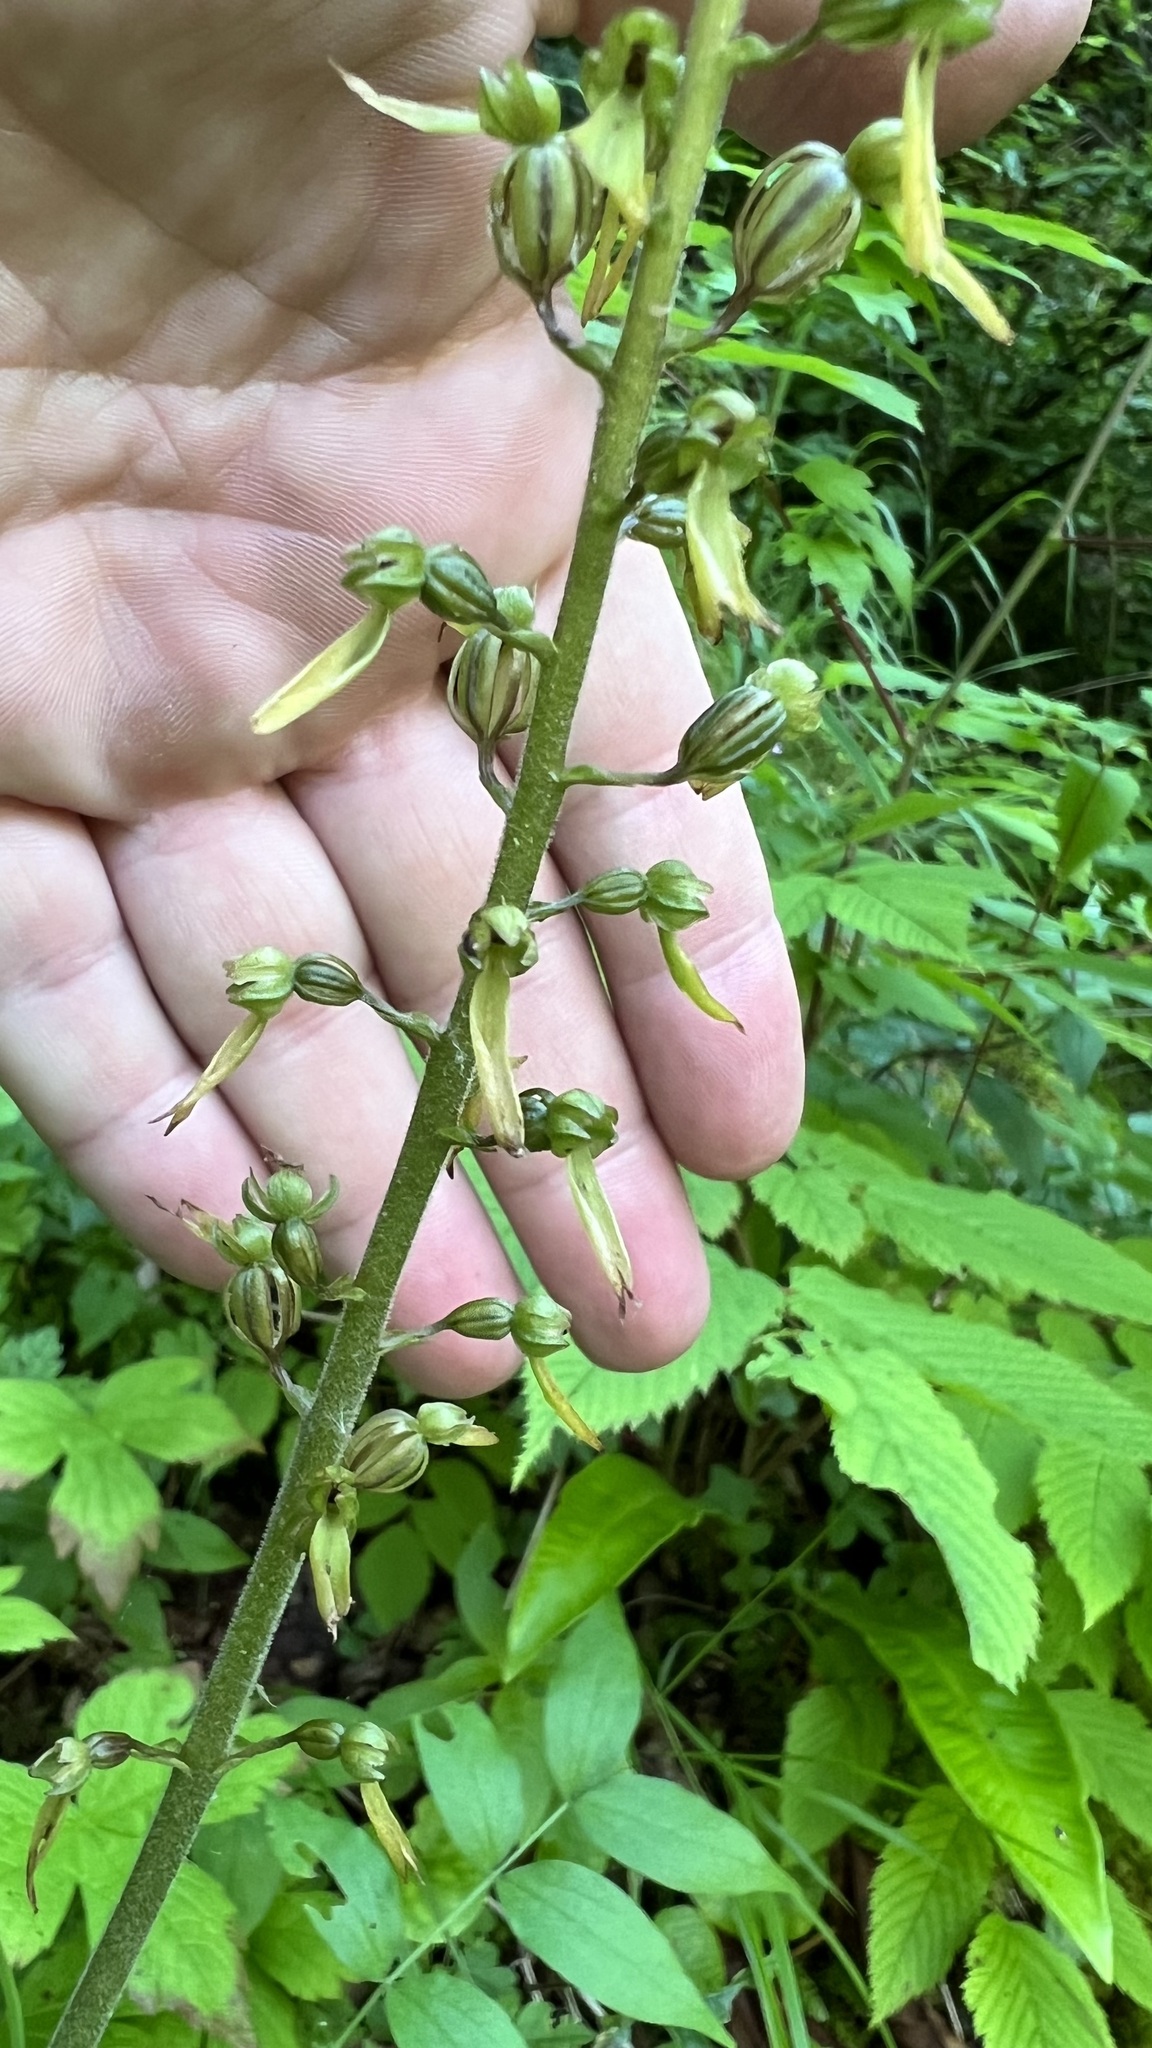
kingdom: Plantae
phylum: Tracheophyta
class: Liliopsida
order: Asparagales
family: Orchidaceae
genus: Neottia
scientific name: Neottia ovata
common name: Common twayblade
